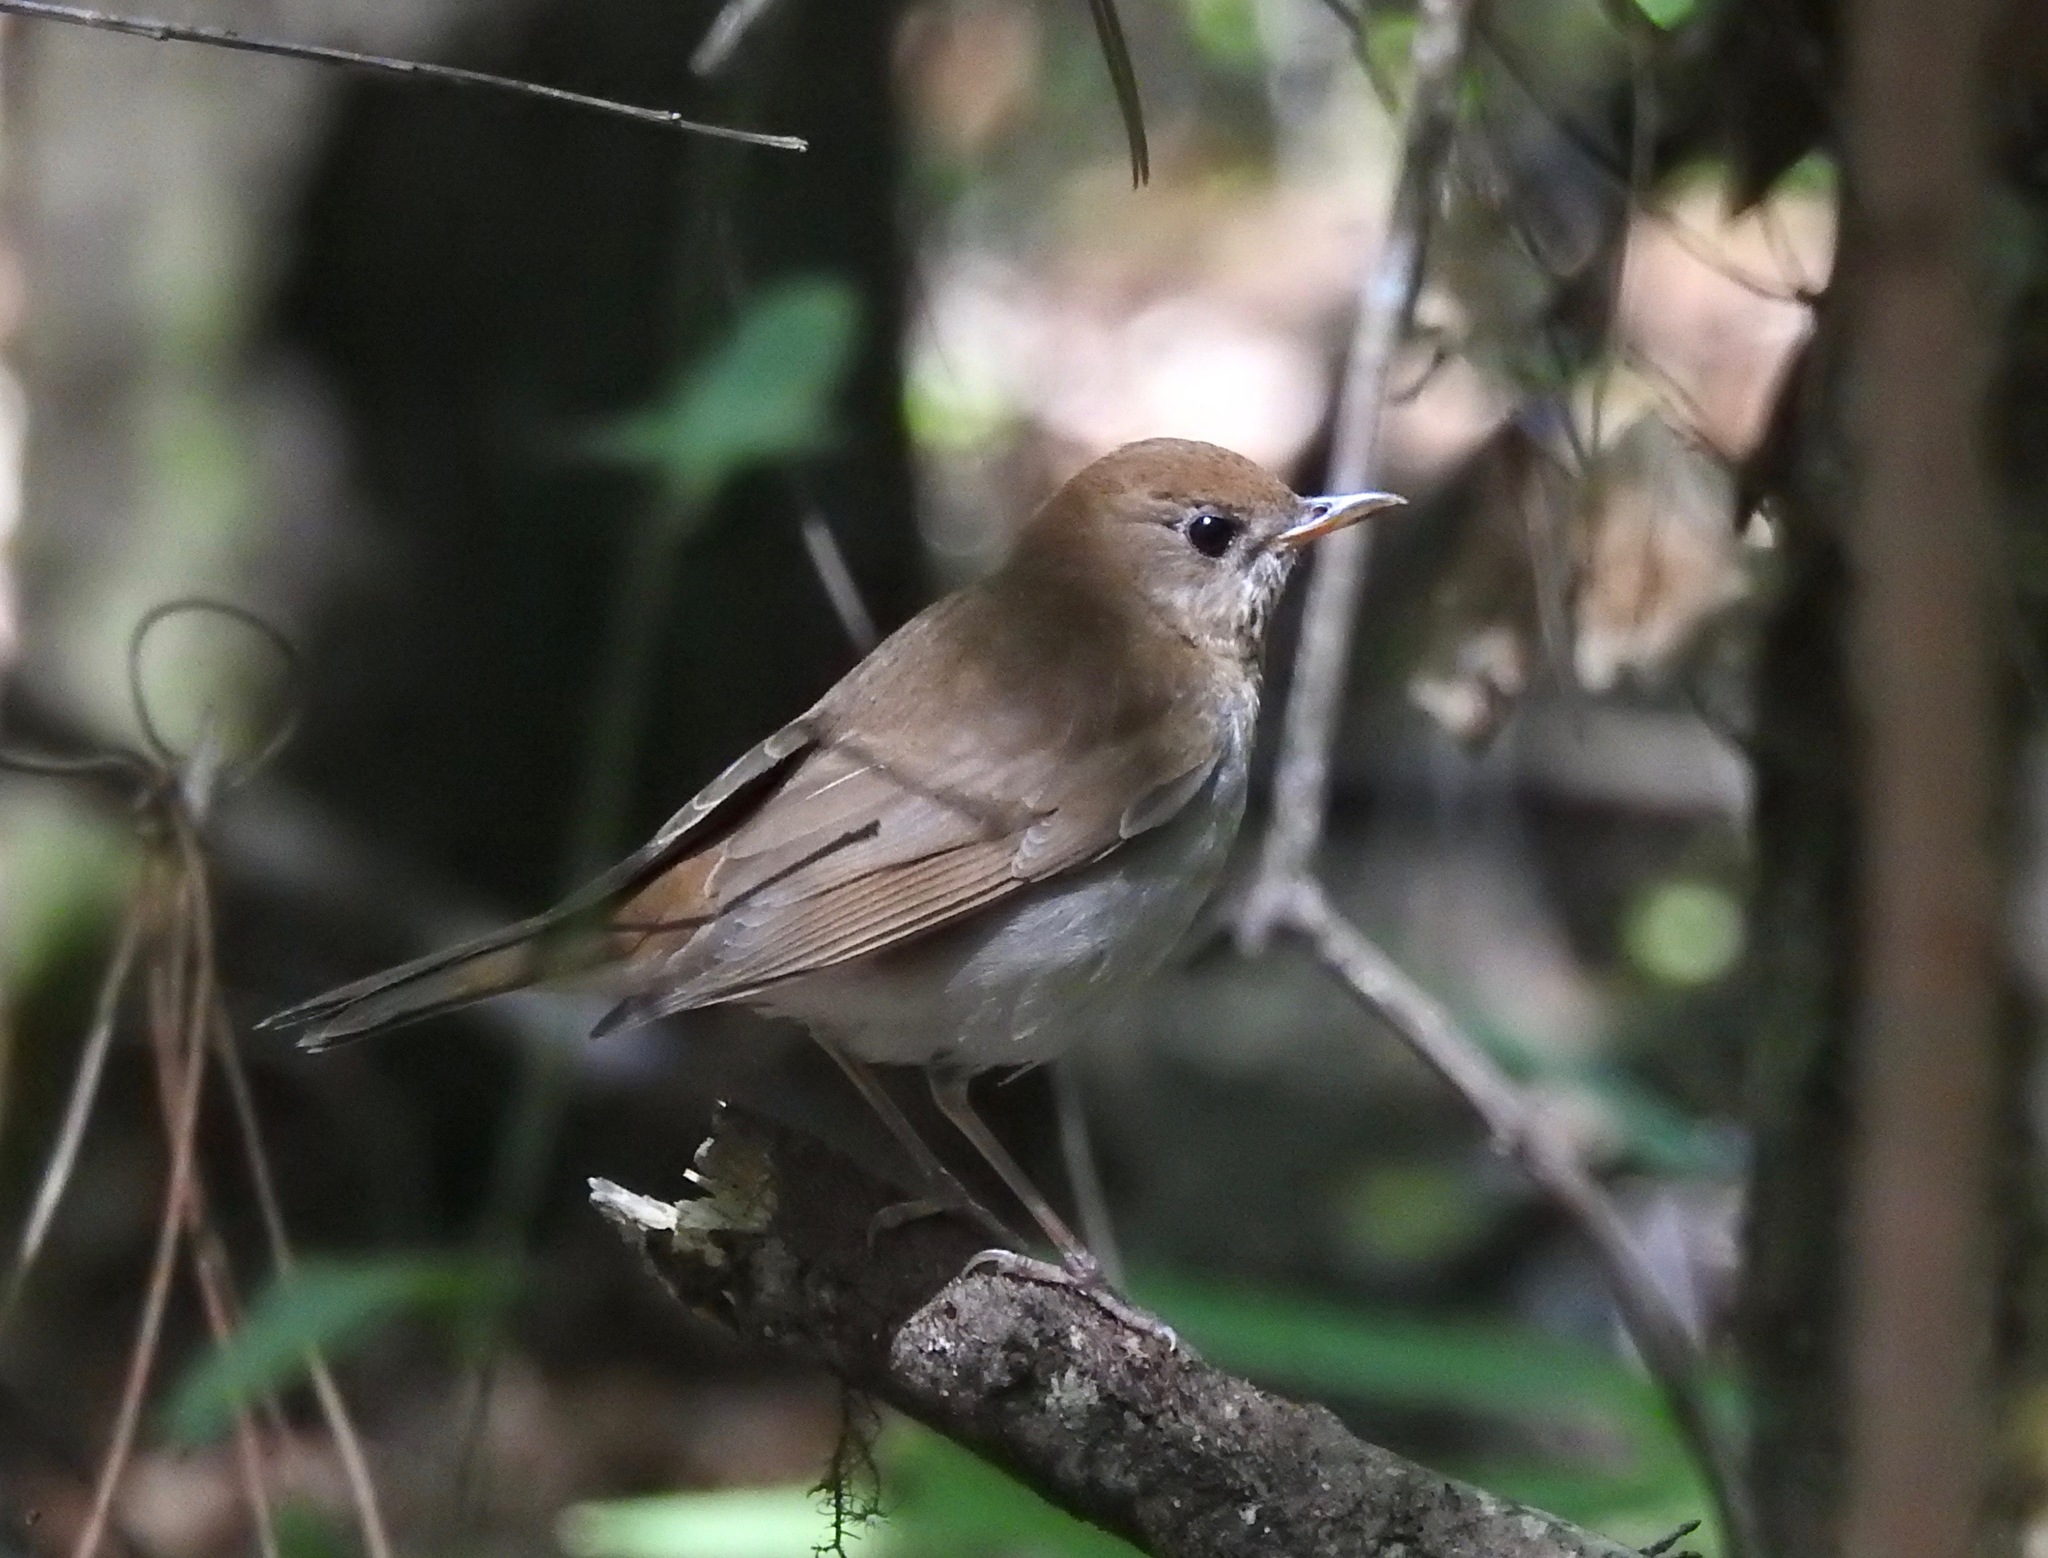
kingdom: Animalia
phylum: Chordata
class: Aves
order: Passeriformes
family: Turdidae
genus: Catharus
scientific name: Catharus fuscescens
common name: Veery
